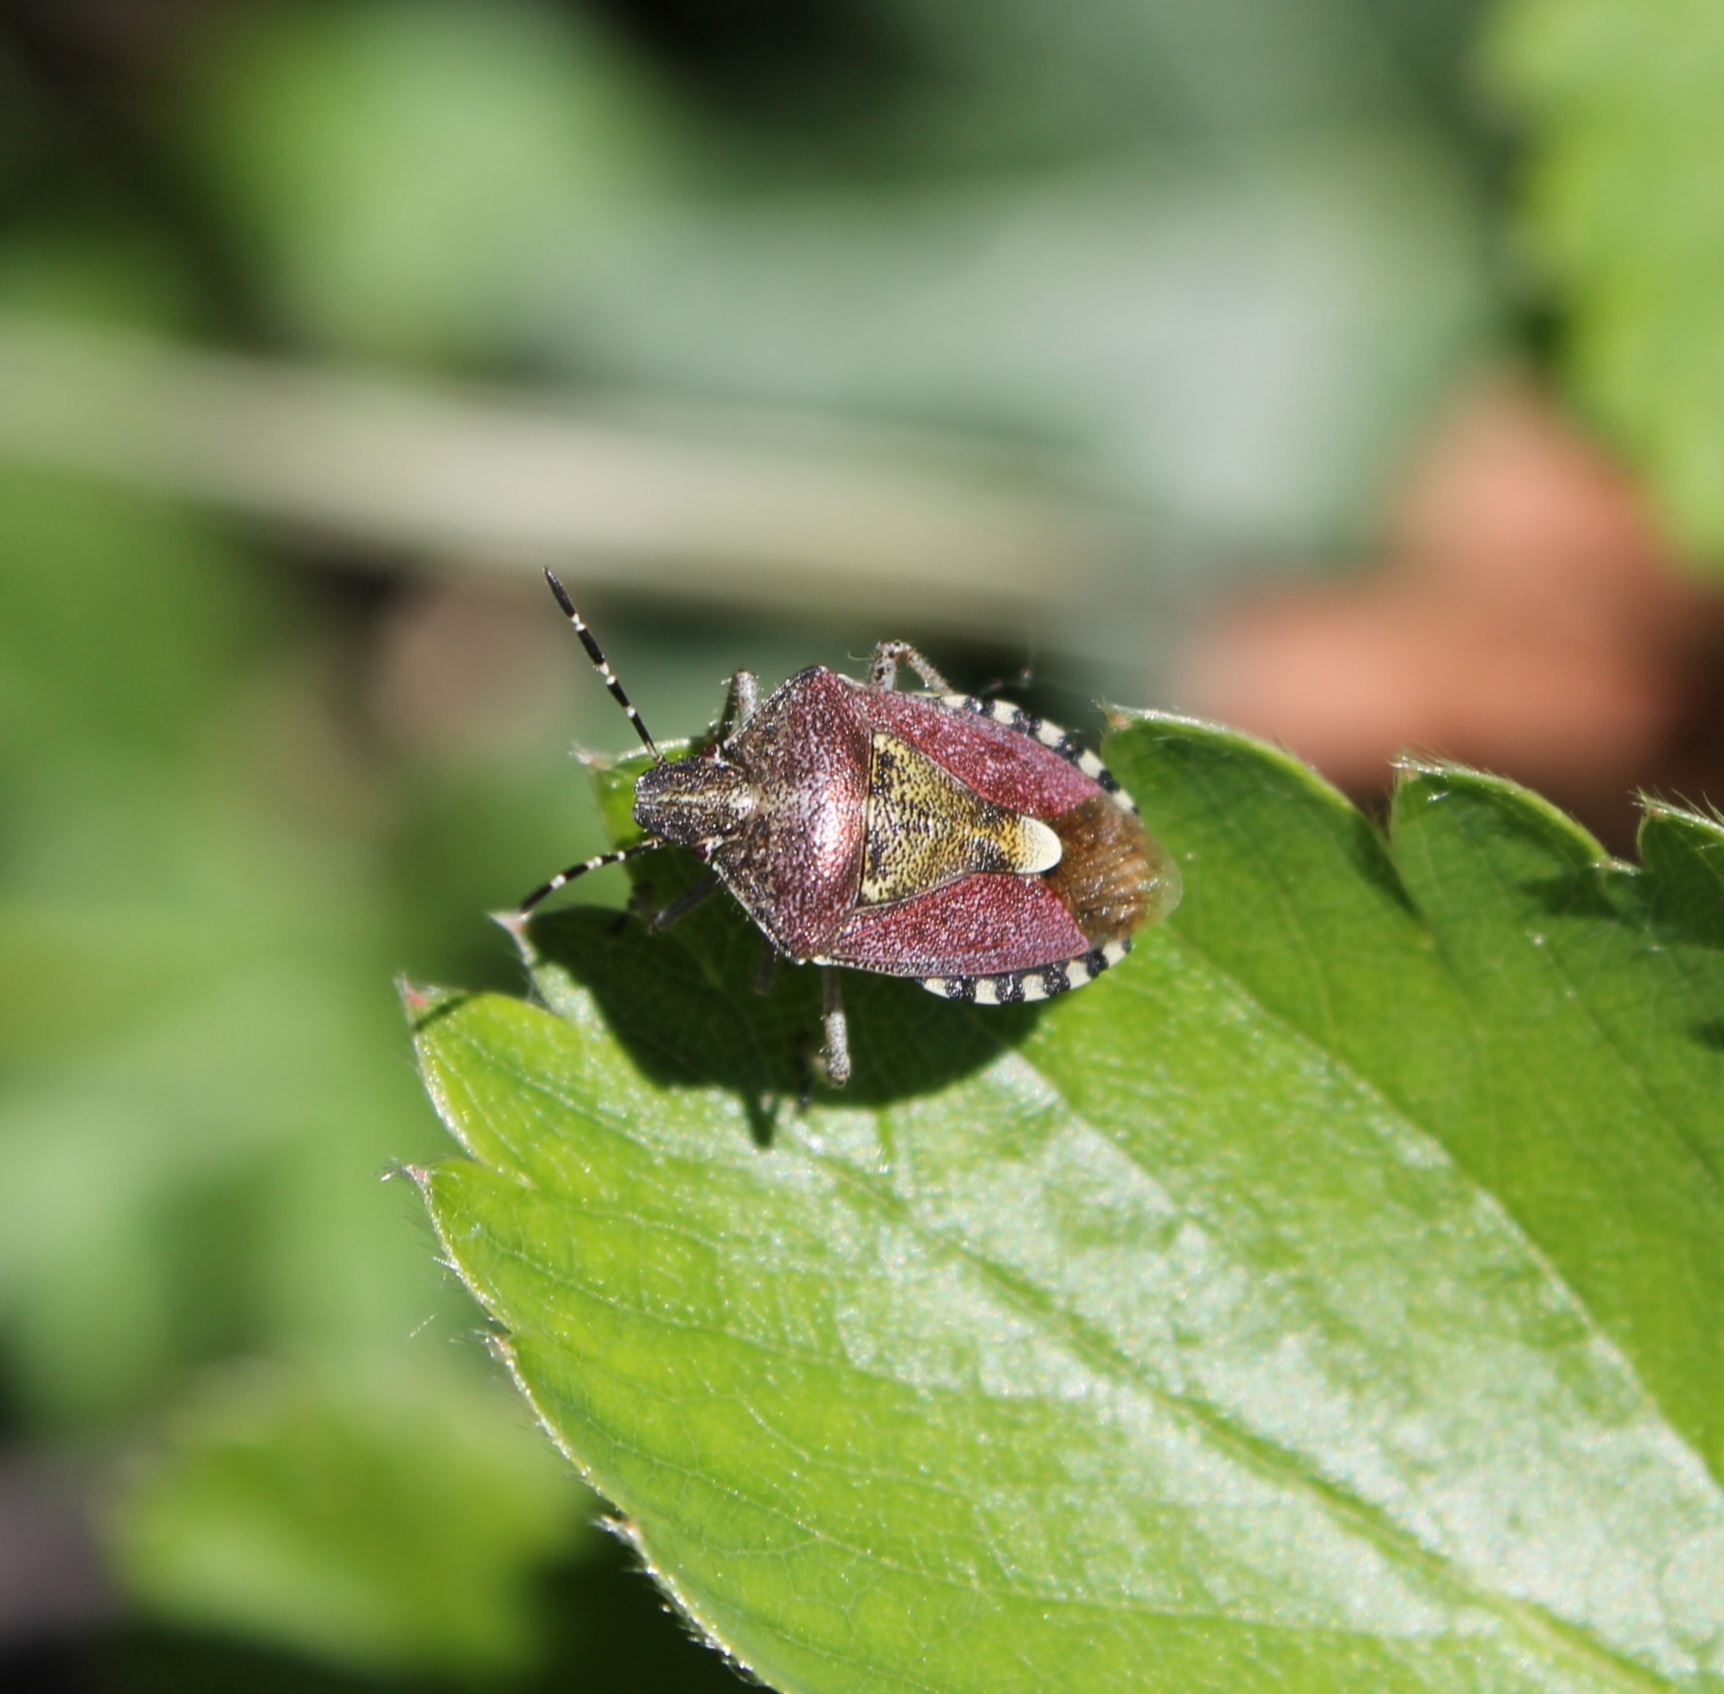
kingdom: Animalia
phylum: Arthropoda
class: Insecta
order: Hemiptera
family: Pentatomidae
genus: Dolycoris
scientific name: Dolycoris baccarum
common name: Sloe bug
